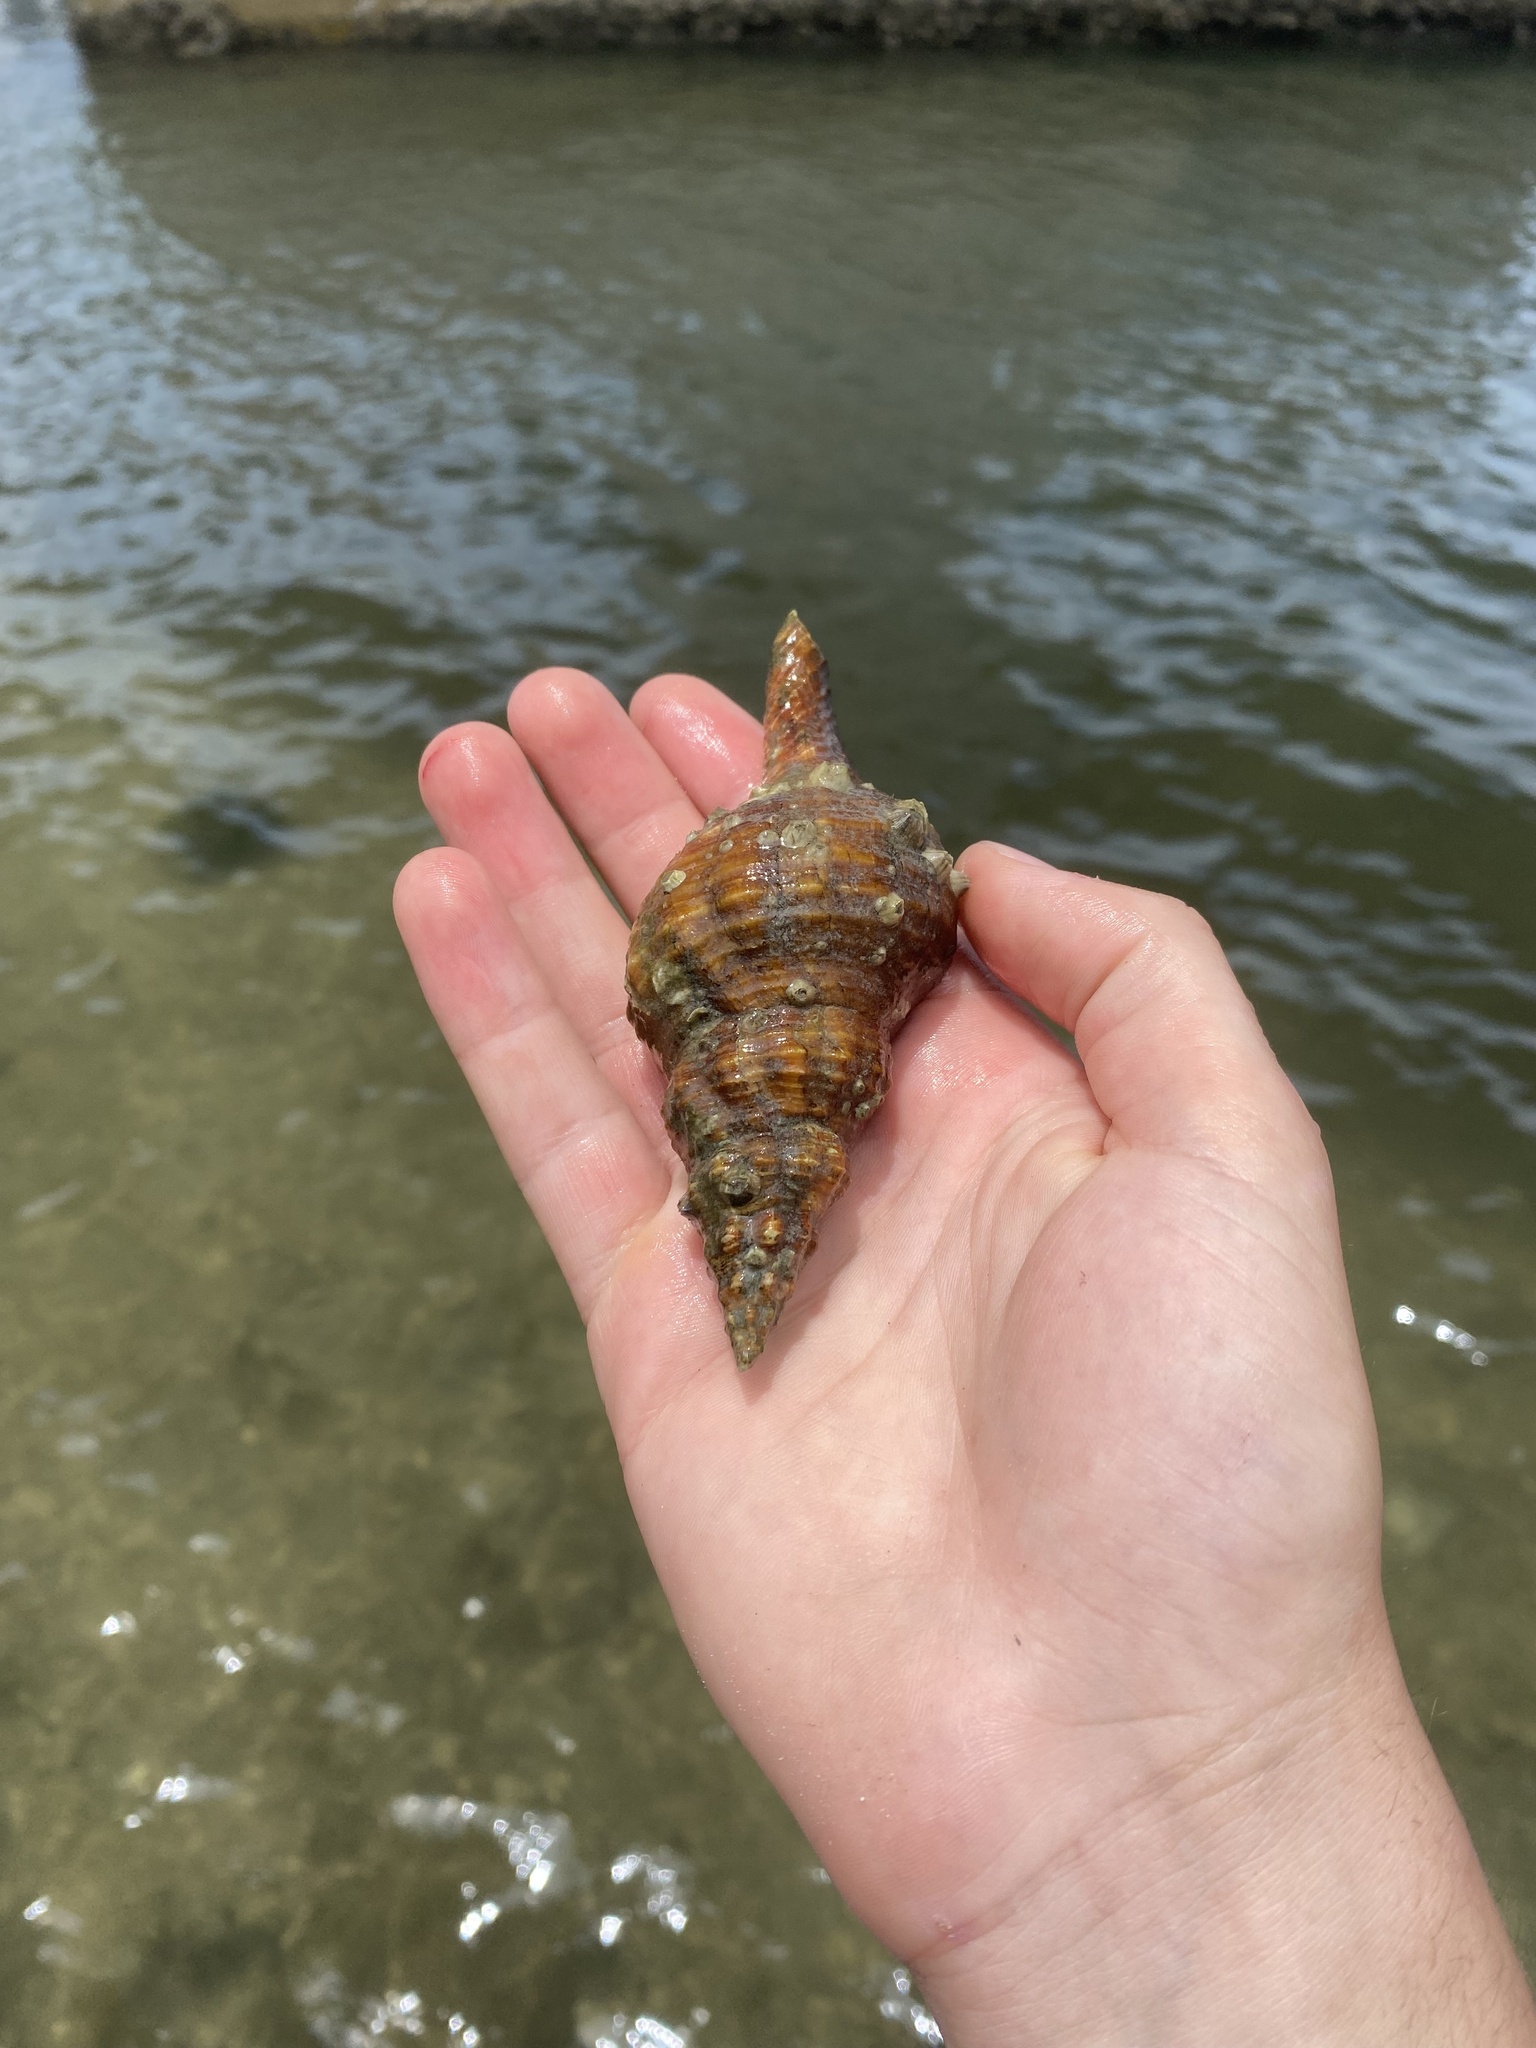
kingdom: Animalia
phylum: Mollusca
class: Gastropoda
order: Neogastropoda
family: Fasciolariidae
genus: Triplofusus
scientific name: Triplofusus giganteus
